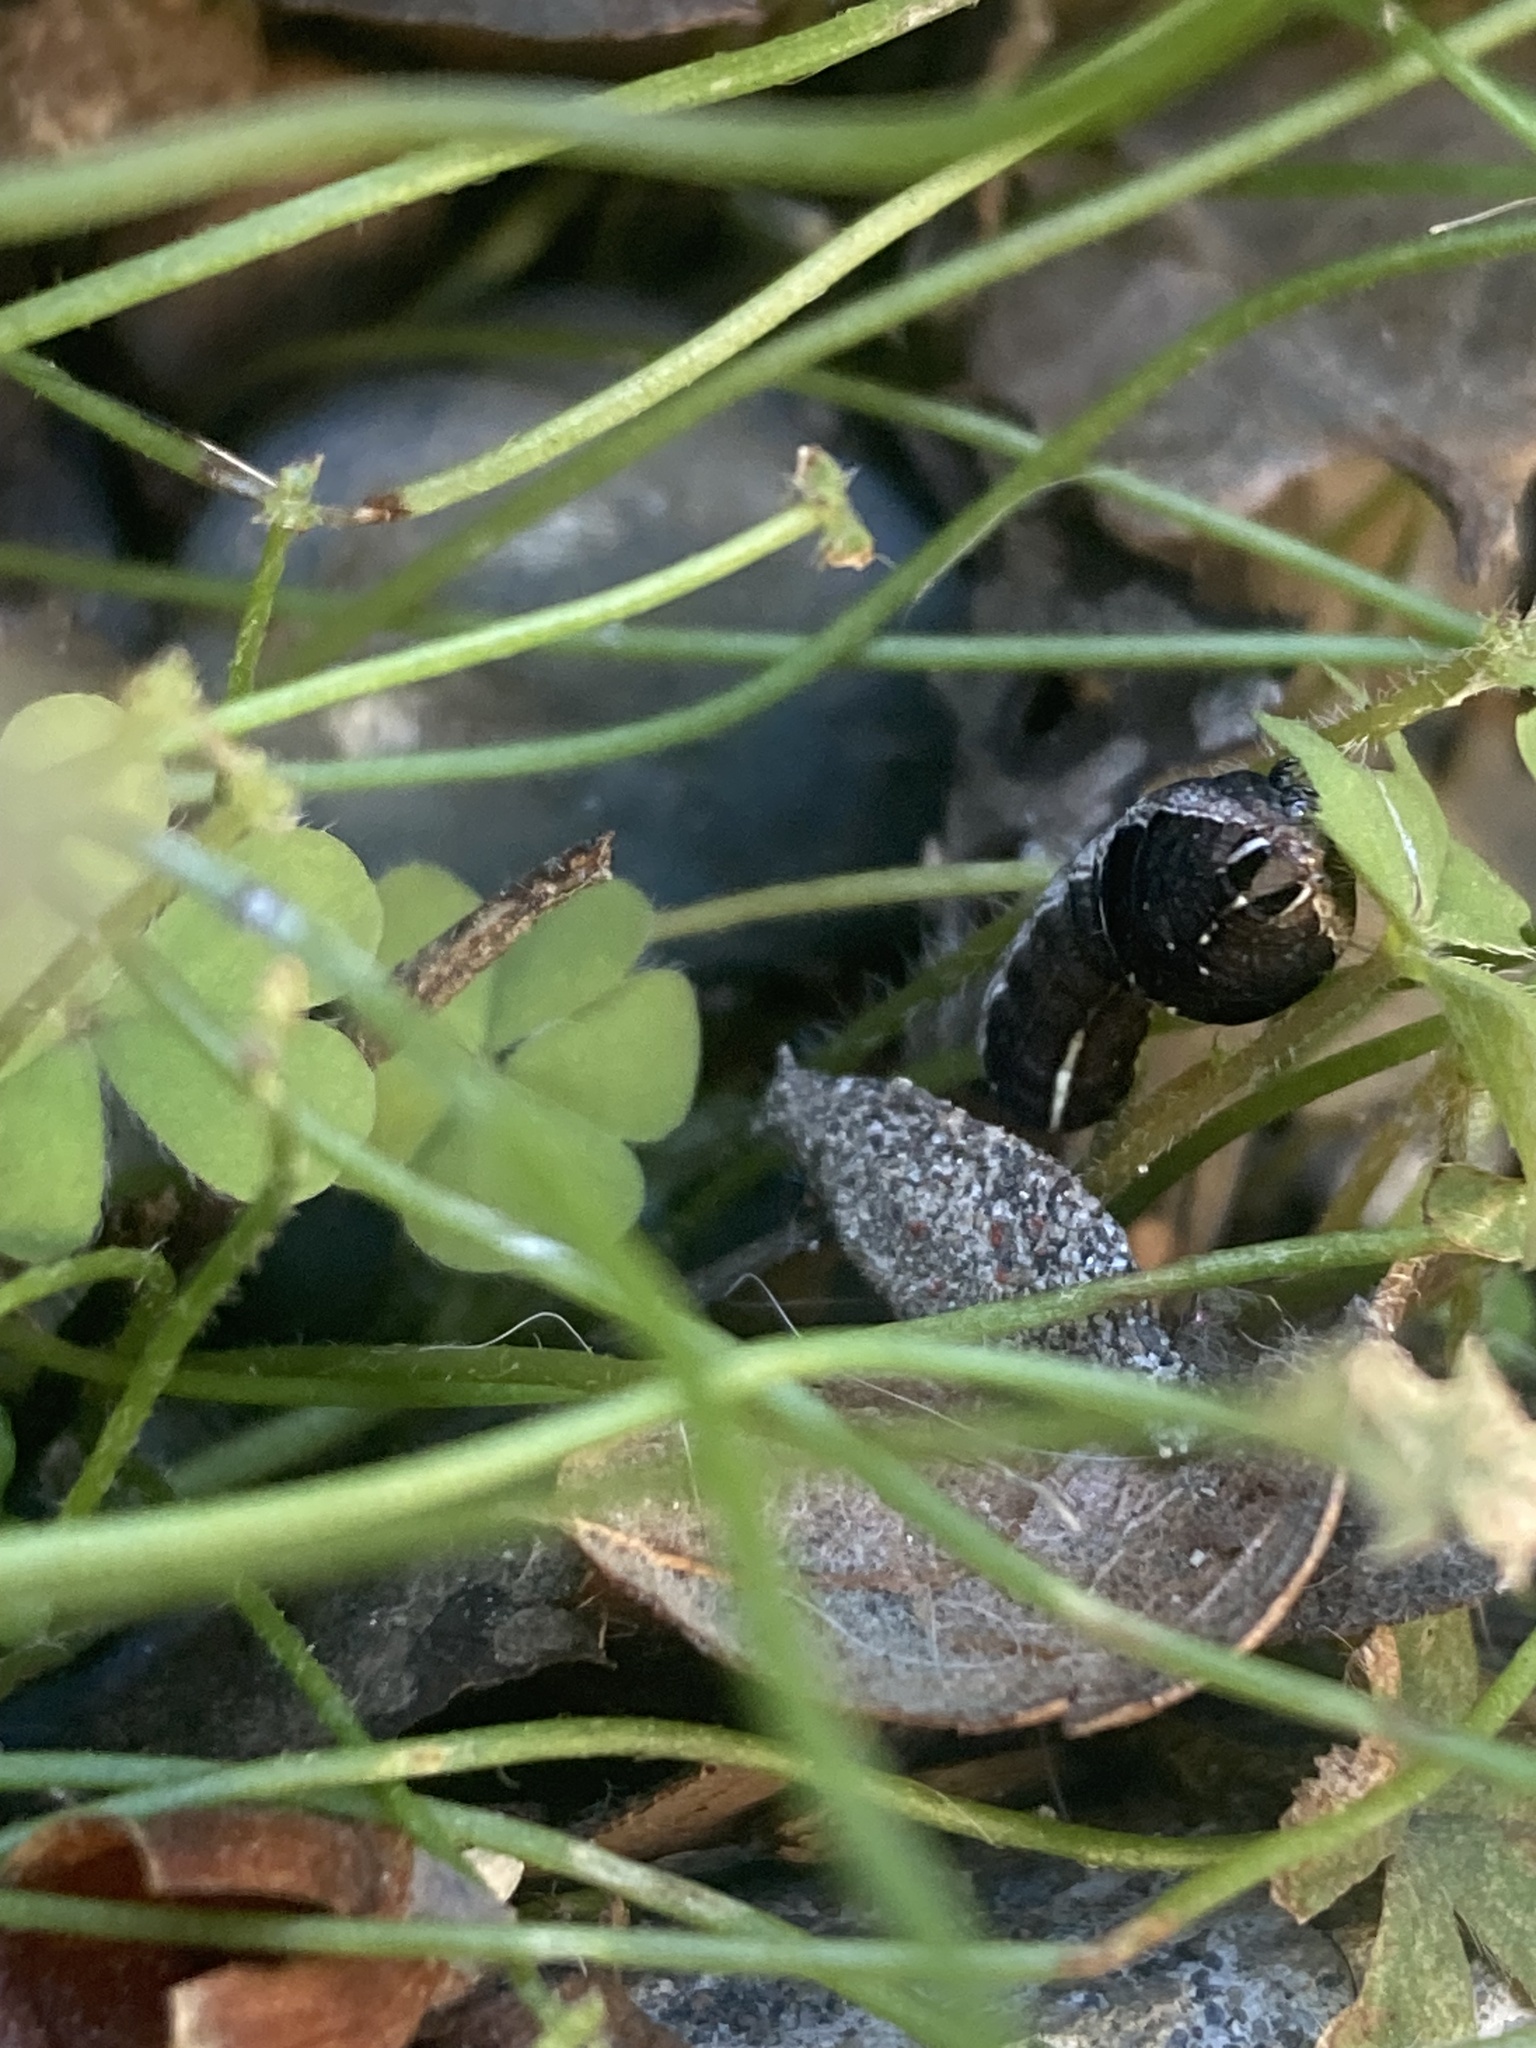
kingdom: Animalia
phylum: Arthropoda
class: Insecta
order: Lepidoptera
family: Noctuidae
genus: Galgula
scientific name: Galgula partita
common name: Wedgeling
